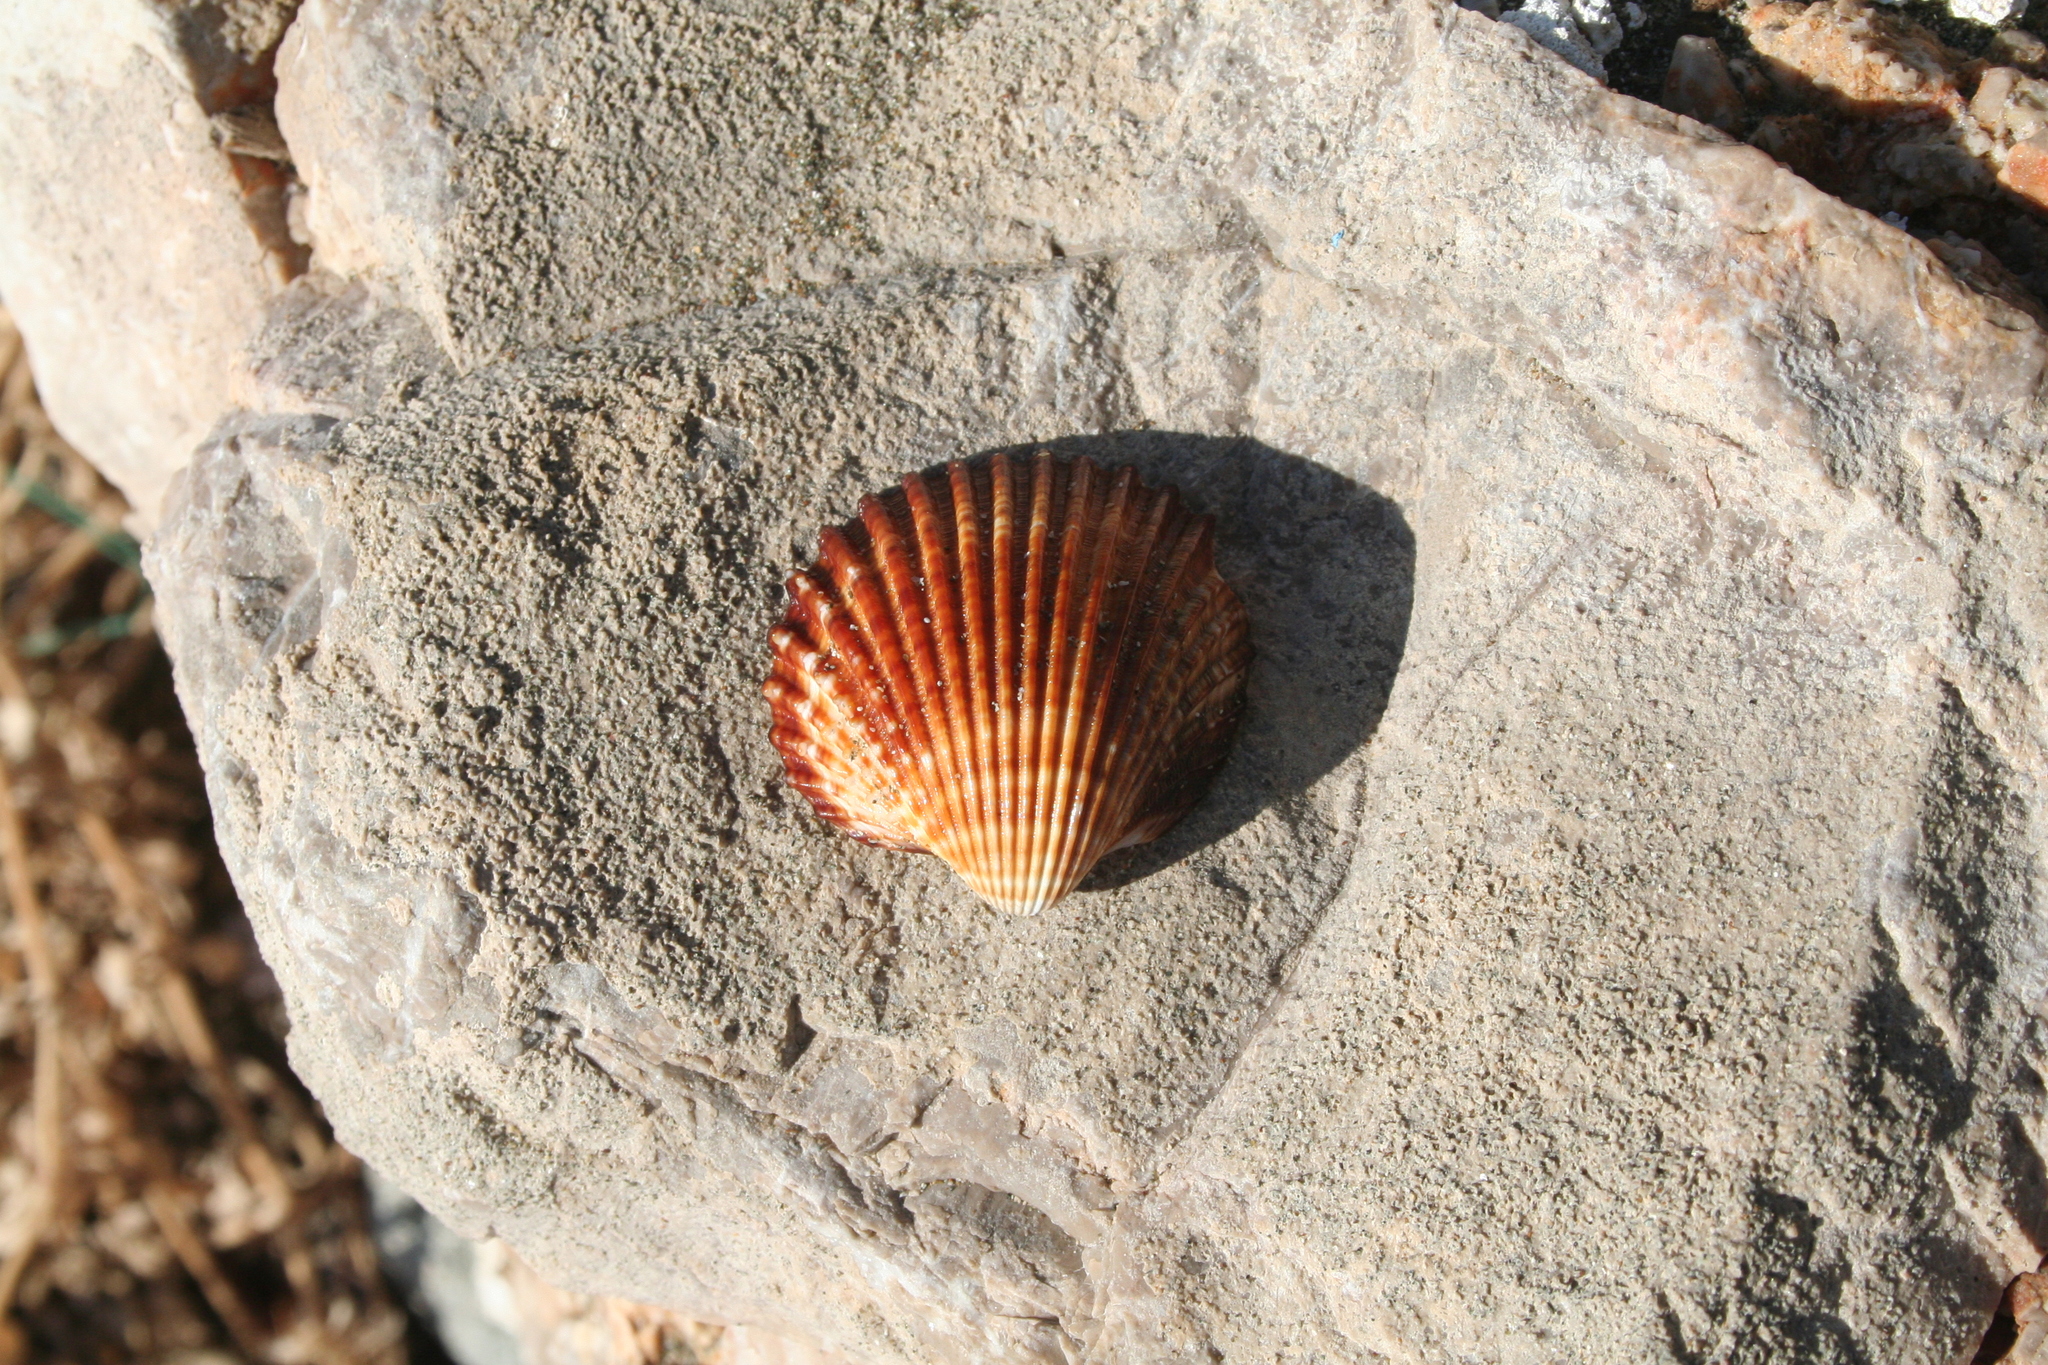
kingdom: Animalia
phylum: Mollusca
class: Bivalvia
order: Cardiida
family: Cardiidae
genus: Acanthocardia
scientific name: Acanthocardia tuberculata
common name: Rough cockle
